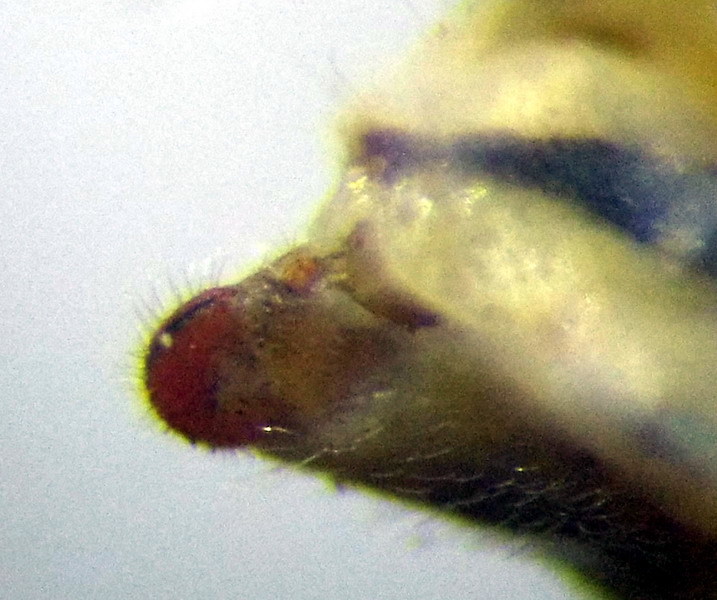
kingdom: Animalia
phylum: Arthropoda
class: Insecta
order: Hemiptera
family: Rhopalidae
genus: Stictopleurus
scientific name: Stictopleurus subtomentosus
